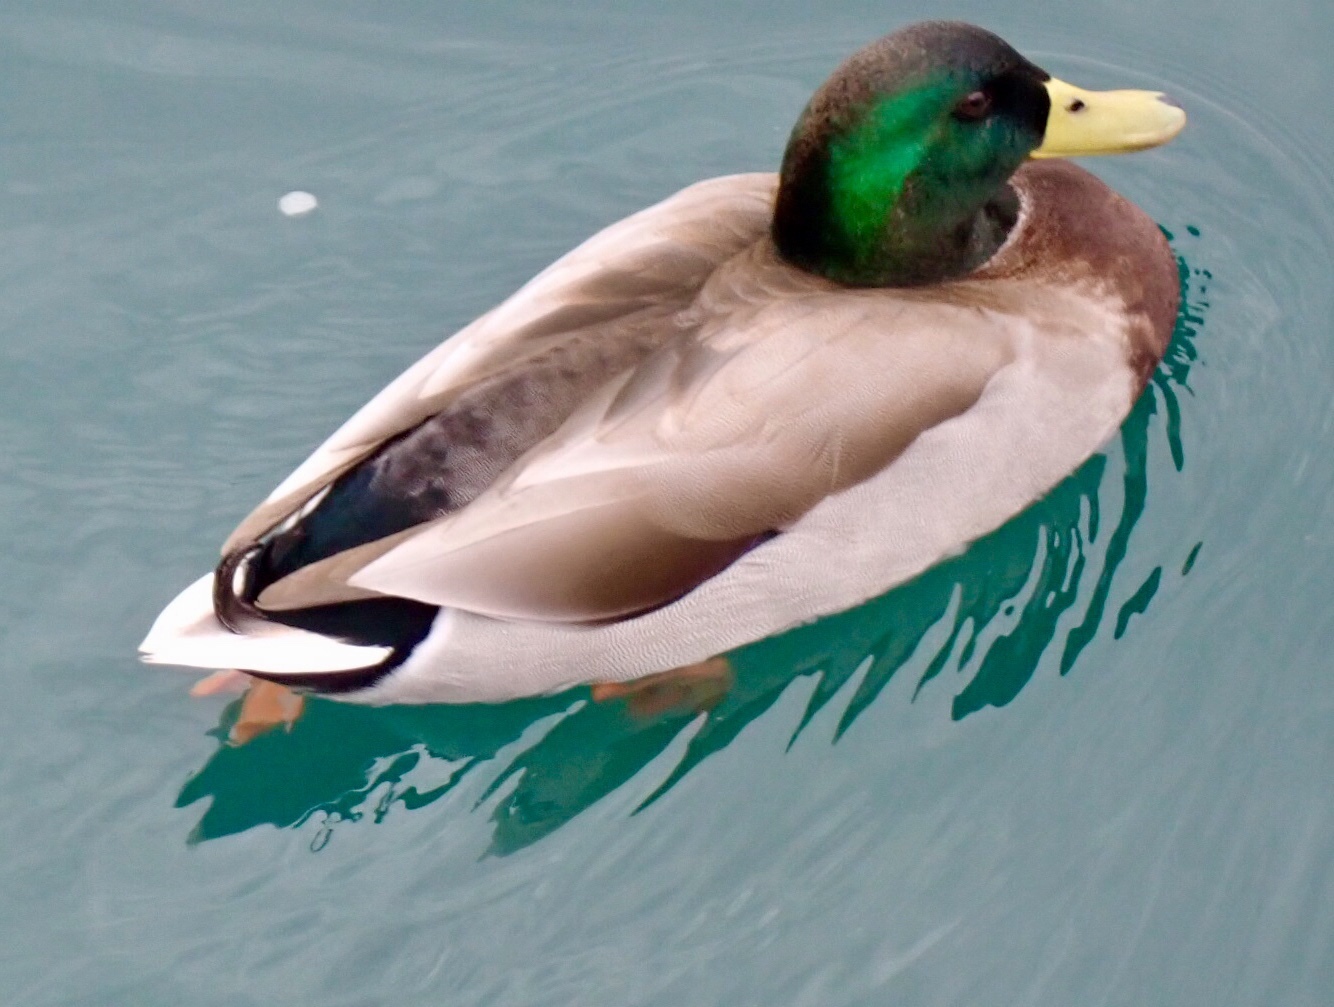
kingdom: Animalia
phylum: Chordata
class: Aves
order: Anseriformes
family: Anatidae
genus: Anas
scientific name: Anas platyrhynchos
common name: Mallard
